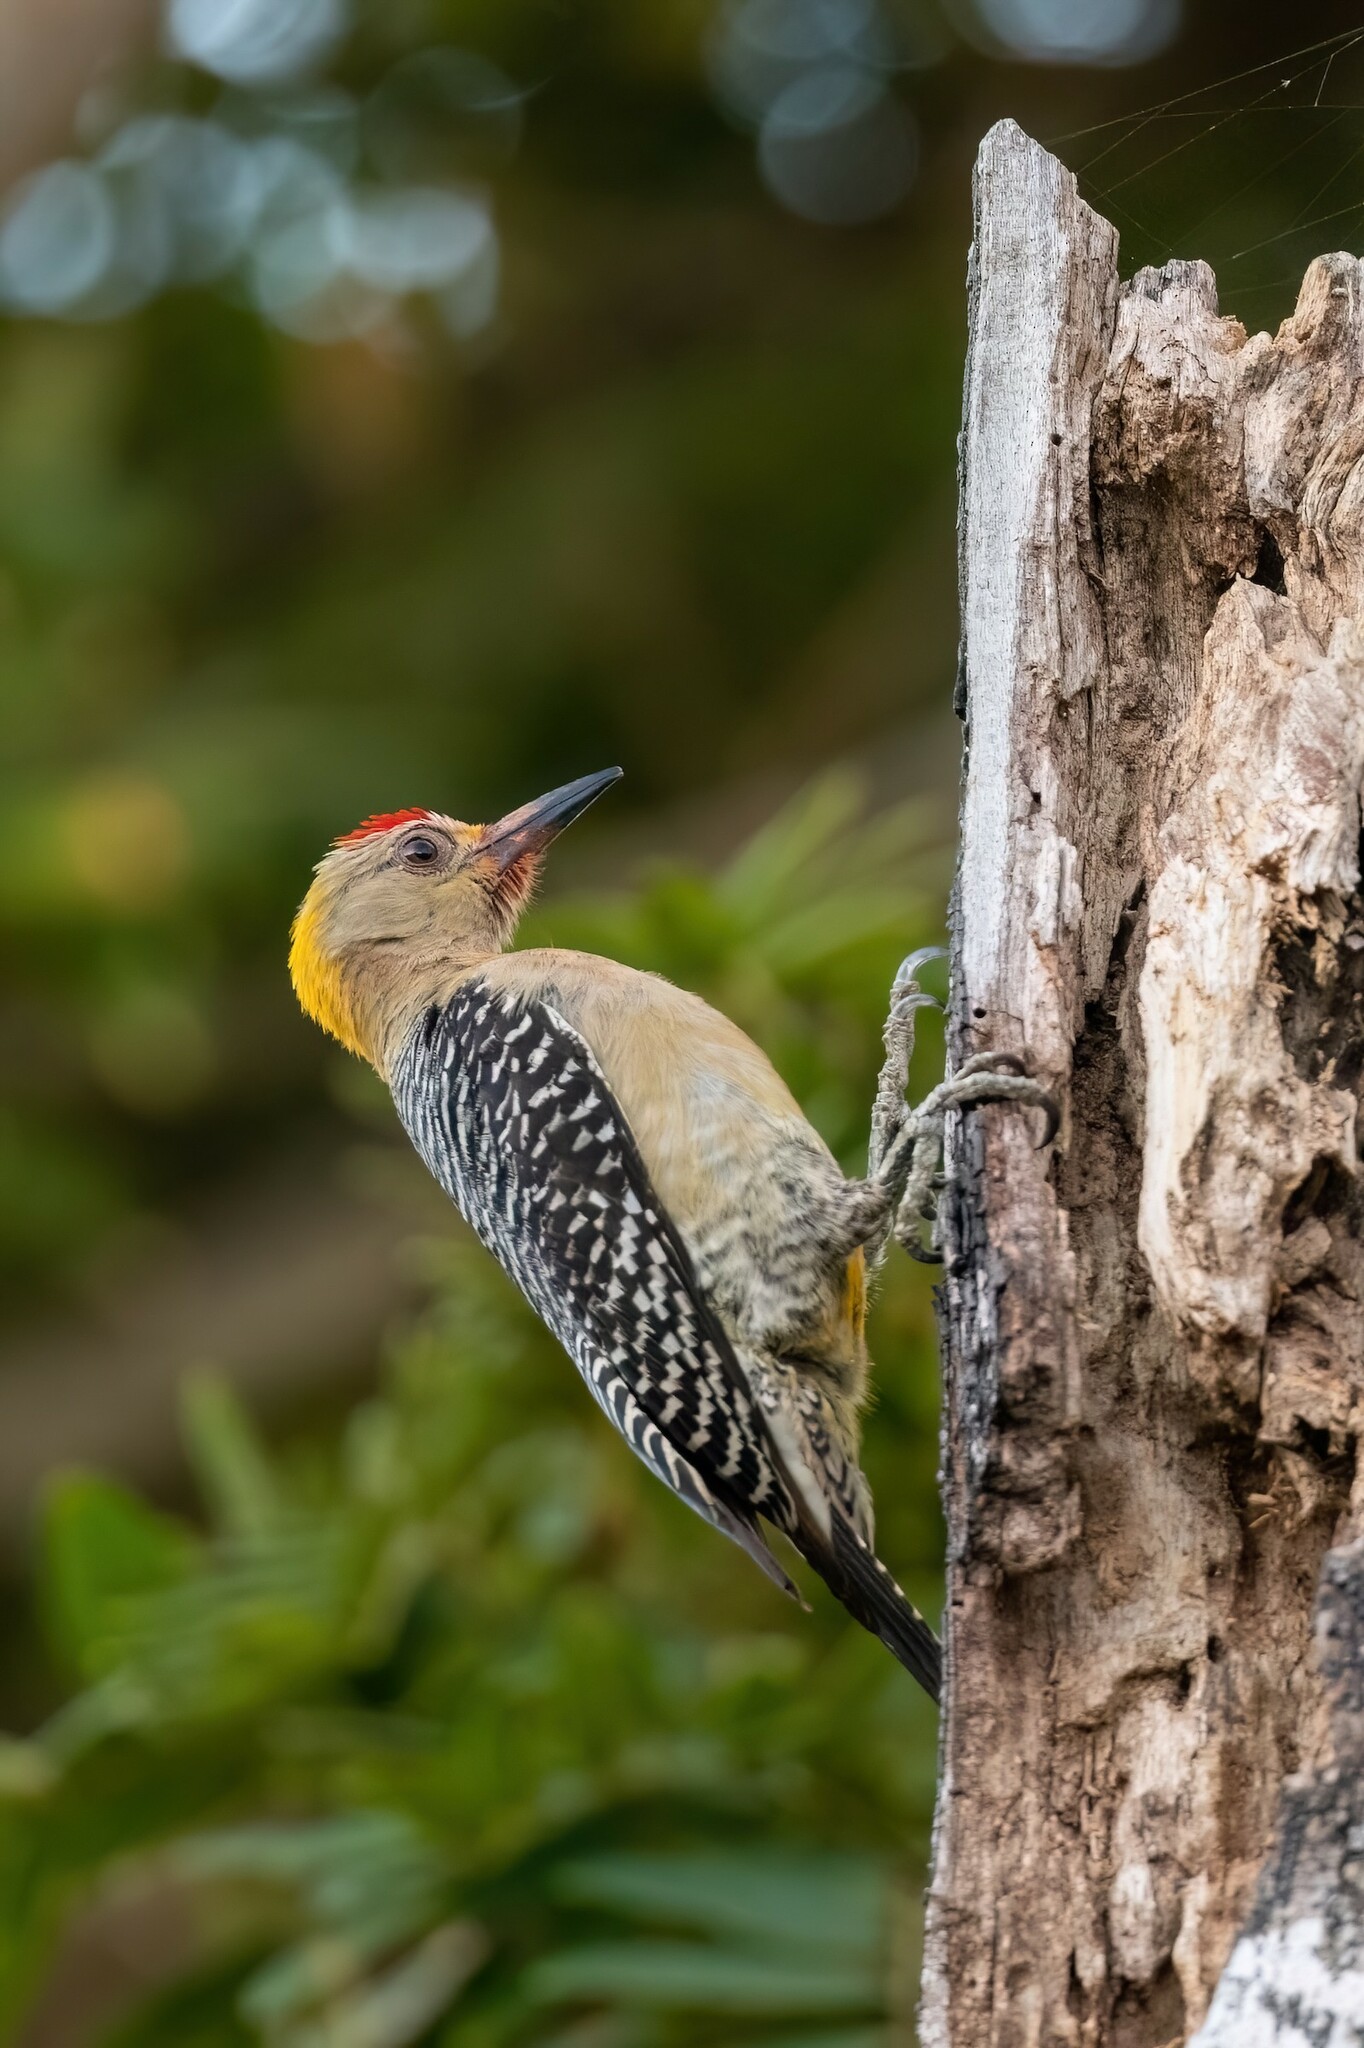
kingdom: Animalia
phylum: Chordata
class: Aves
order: Piciformes
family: Picidae
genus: Melanerpes
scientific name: Melanerpes hoffmannii
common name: Hoffmann's woodpecker
